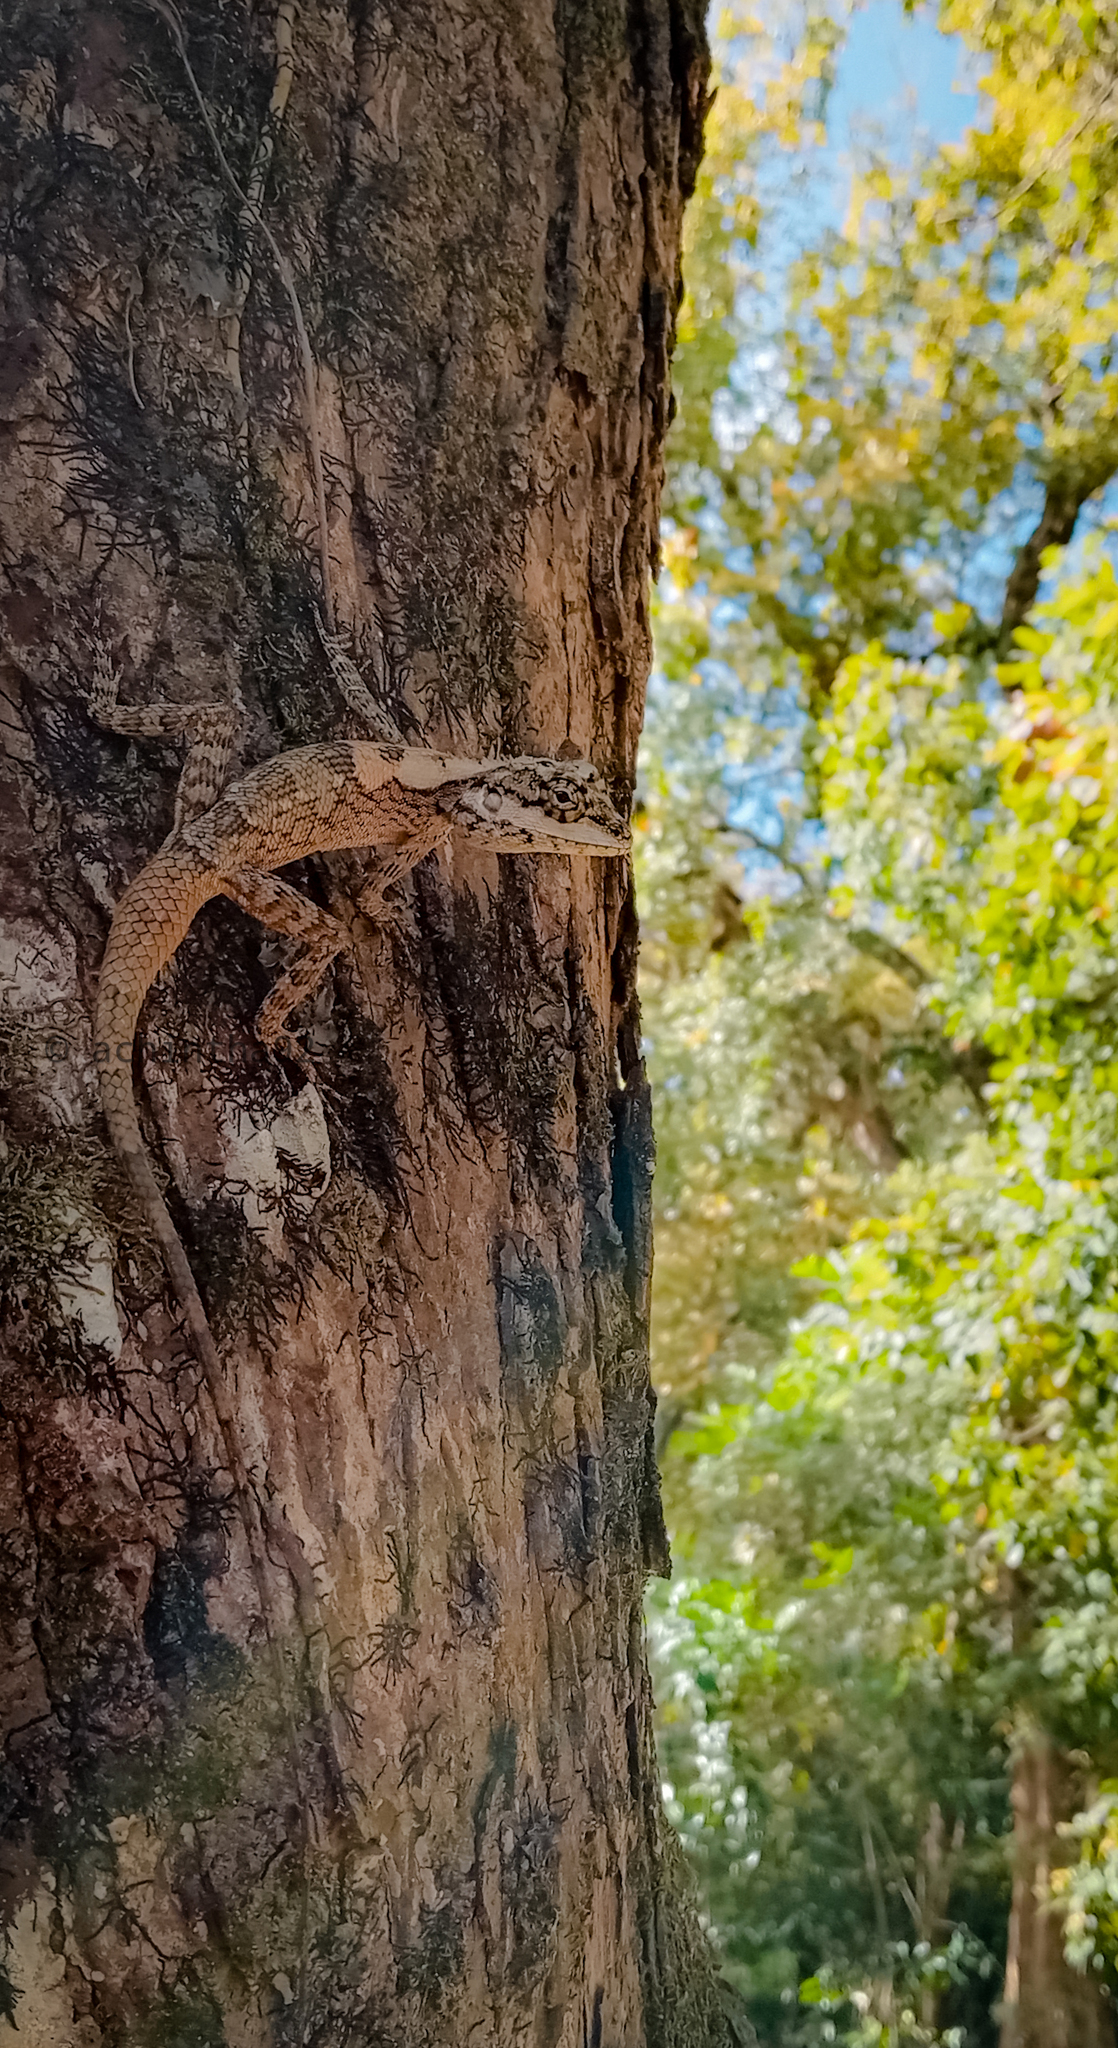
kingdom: Animalia
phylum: Chordata
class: Squamata
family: Agamidae
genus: Calotes
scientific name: Calotes ceylonensis
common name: Ceylon bloodsucker
